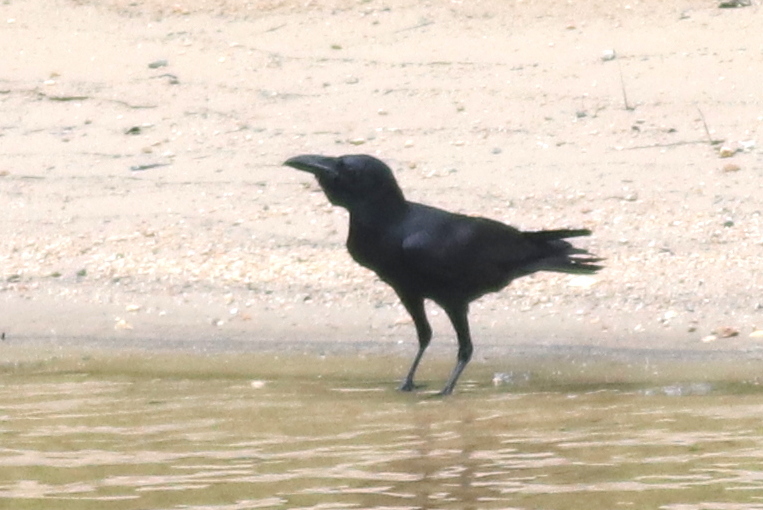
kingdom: Animalia
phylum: Chordata
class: Aves
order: Passeriformes
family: Corvidae
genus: Corvus
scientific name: Corvus macrorhynchos
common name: Large-billed crow
